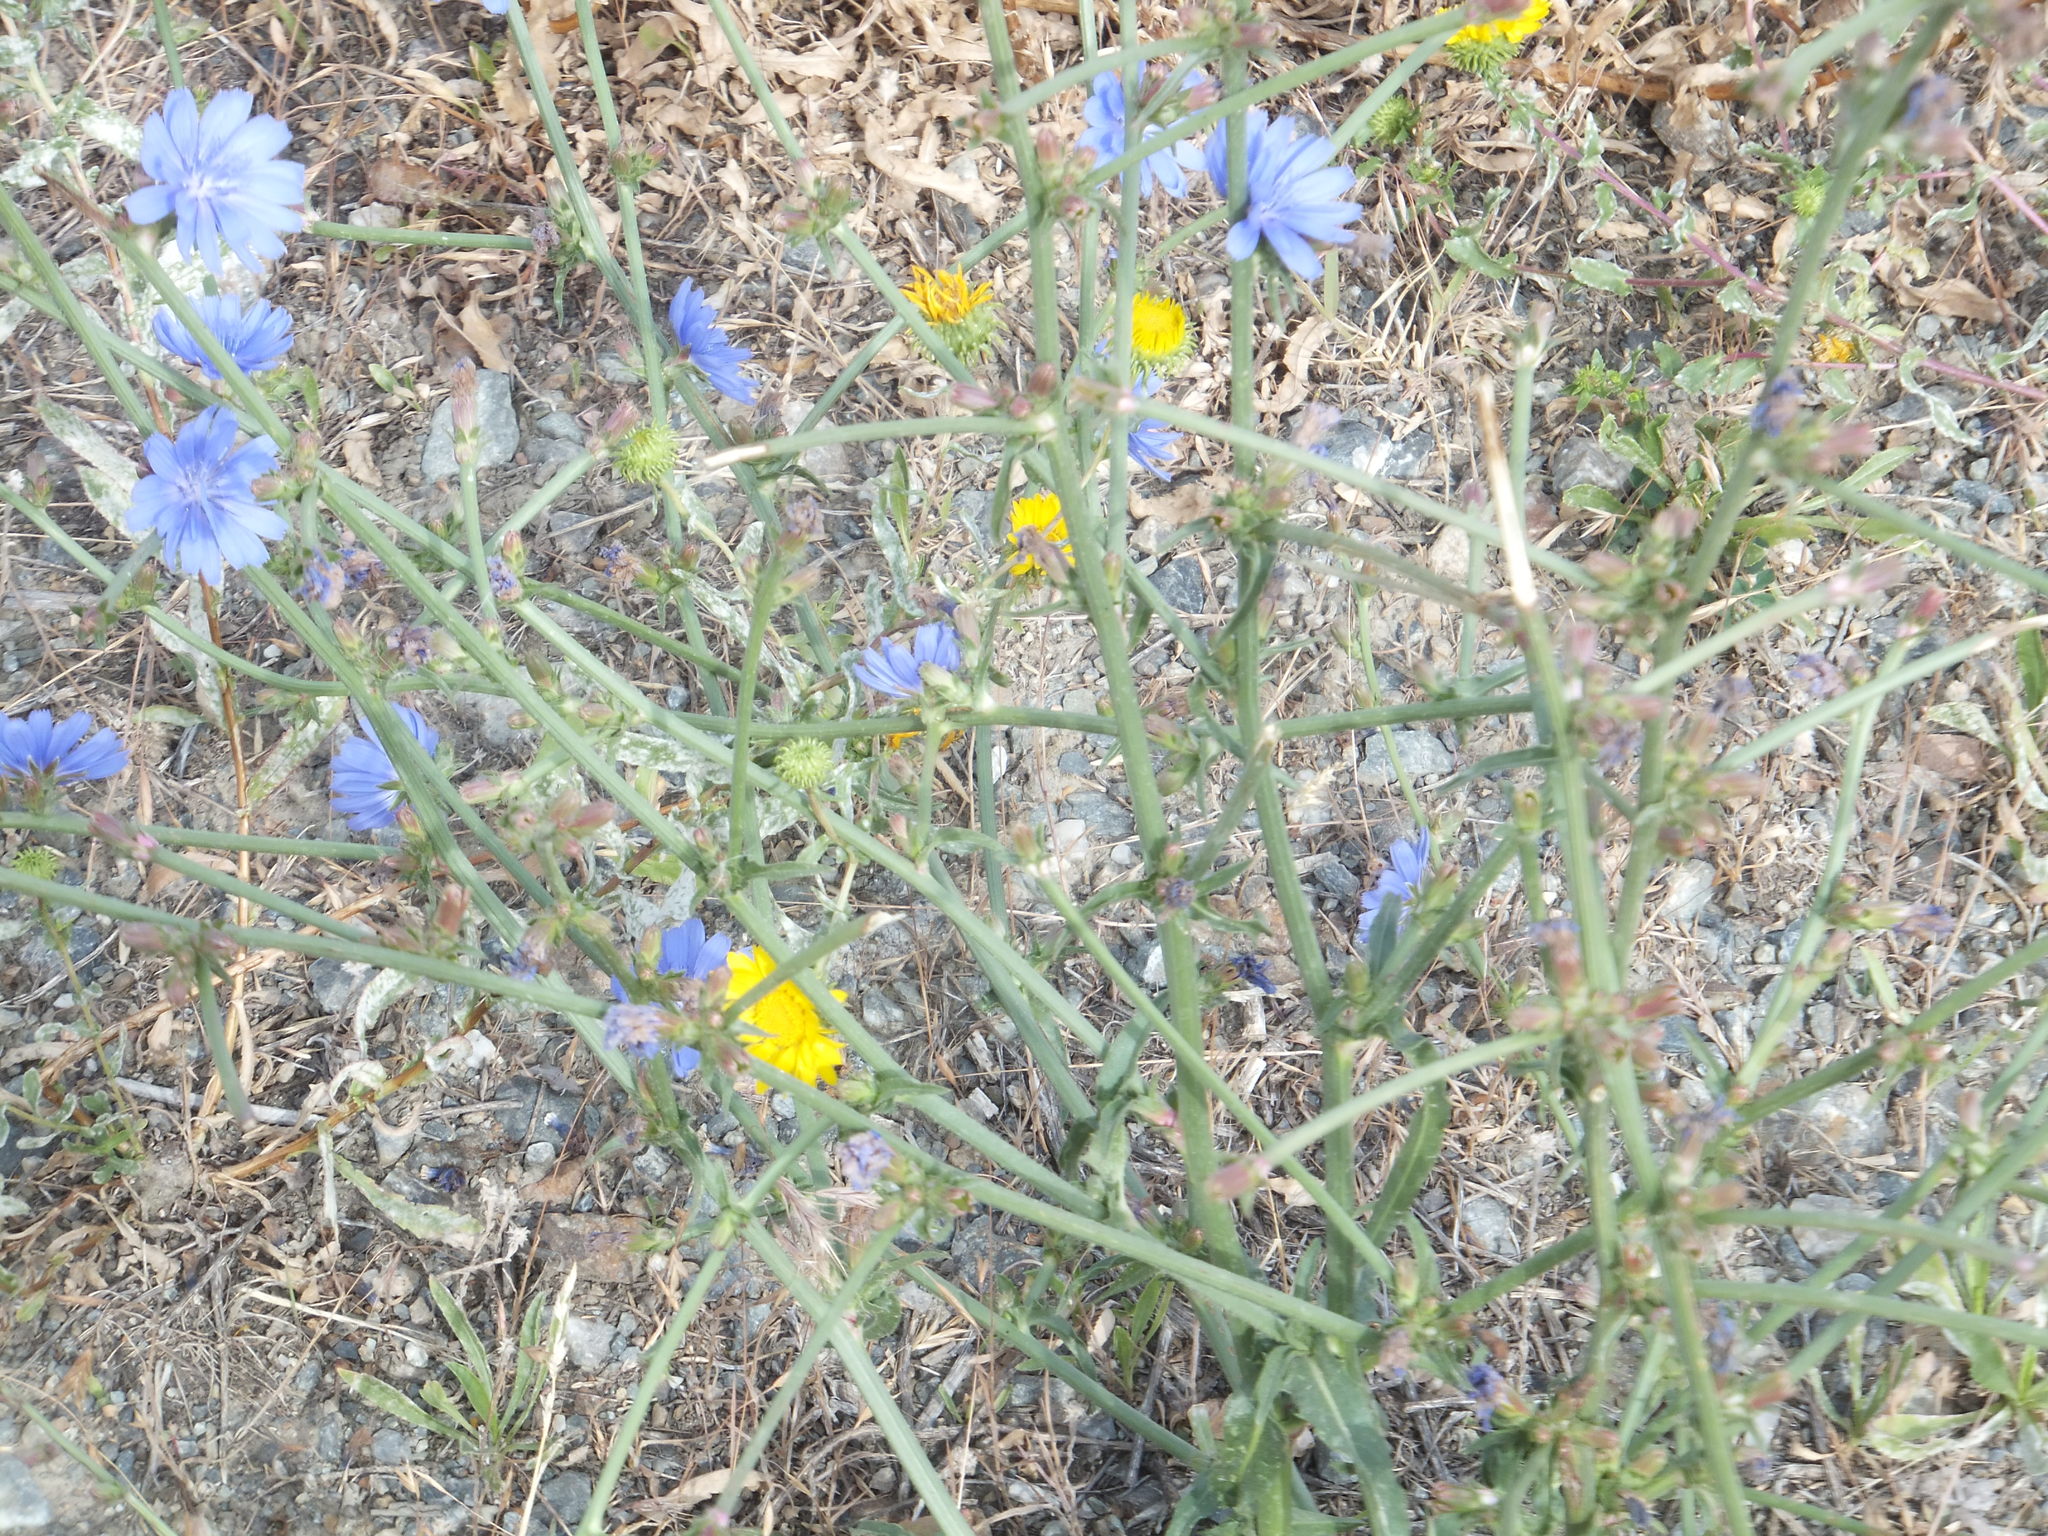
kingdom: Plantae
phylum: Tracheophyta
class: Magnoliopsida
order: Asterales
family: Asteraceae
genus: Cichorium
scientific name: Cichorium intybus
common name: Chicory
